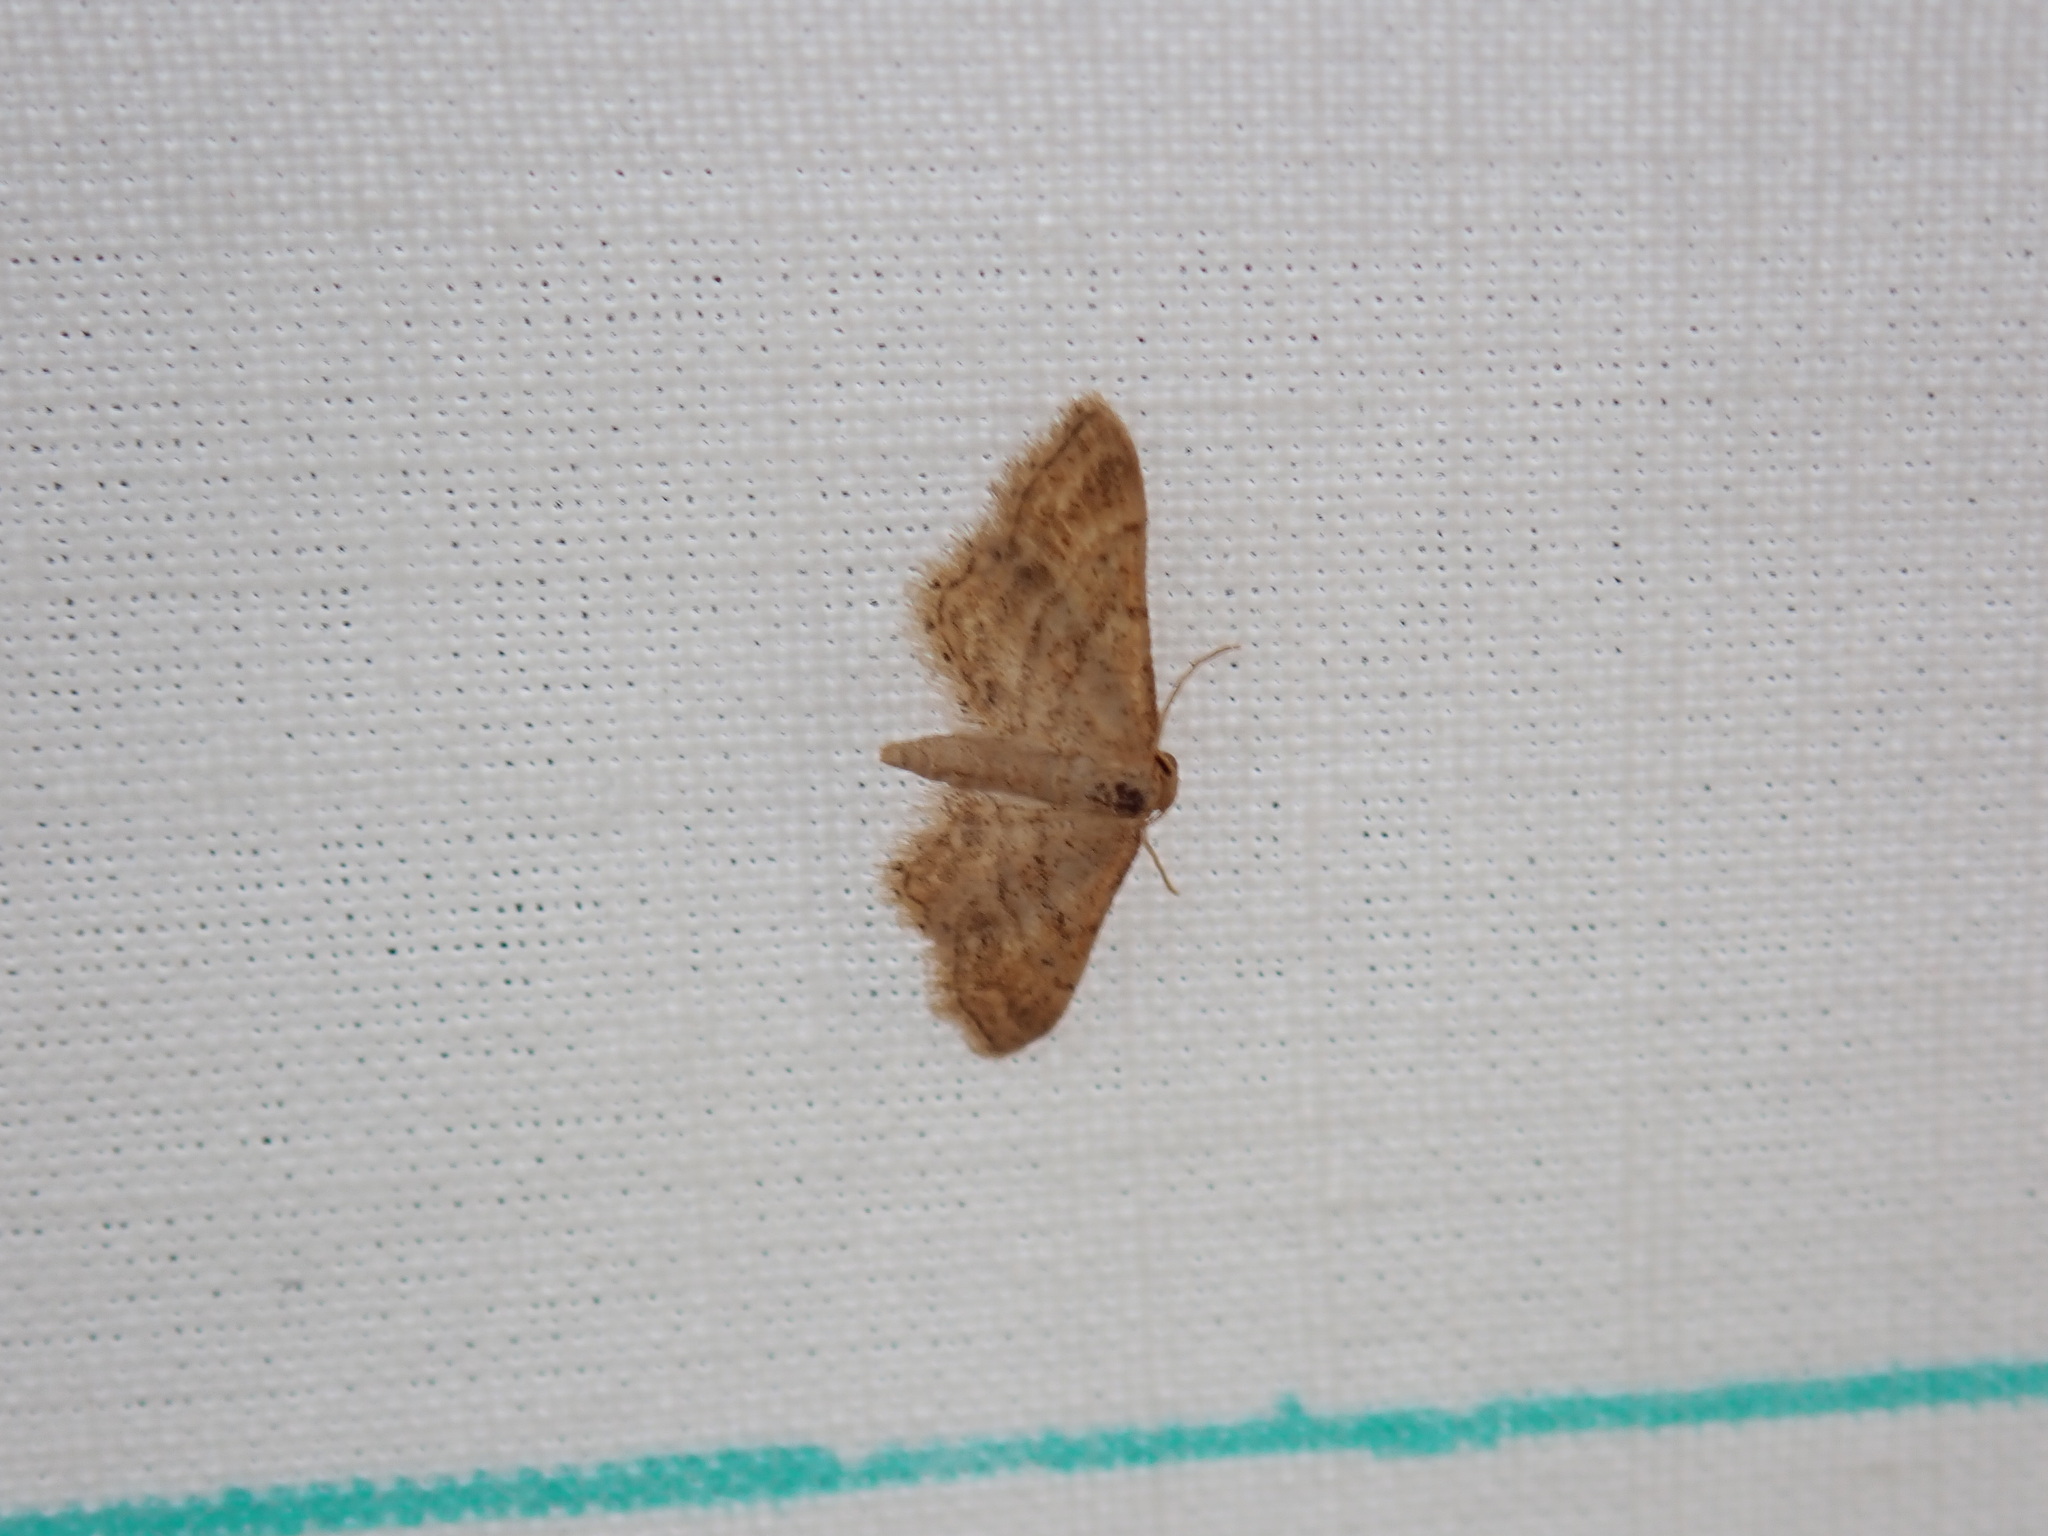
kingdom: Animalia
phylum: Arthropoda
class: Insecta
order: Lepidoptera
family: Geometridae
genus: Idaea
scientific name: Idaea fractilineata
